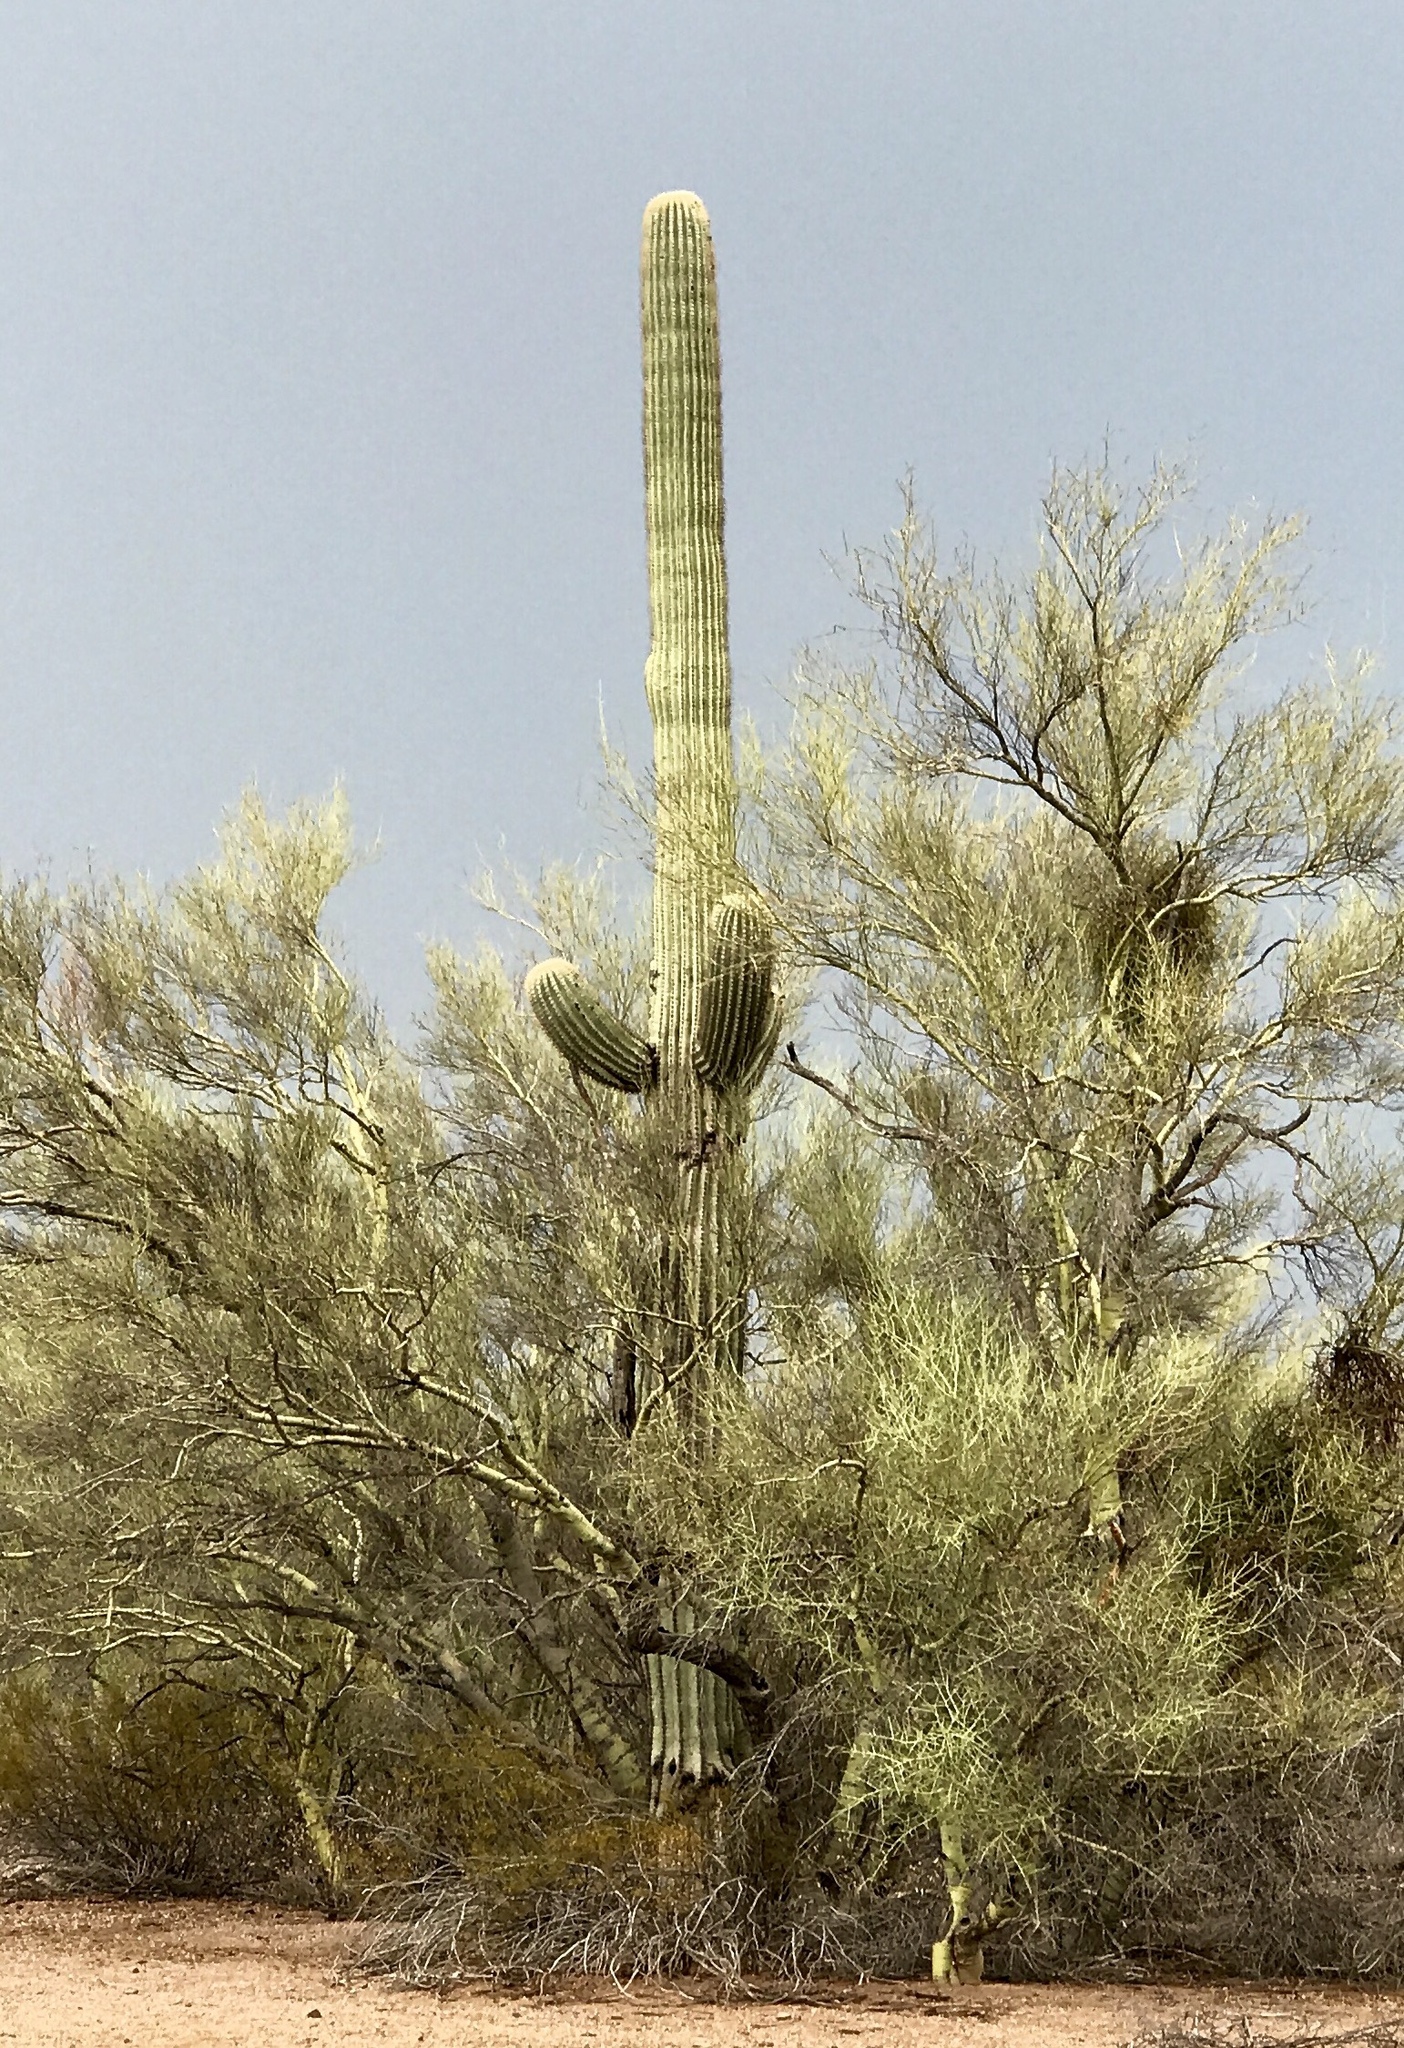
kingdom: Plantae
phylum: Tracheophyta
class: Magnoliopsida
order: Caryophyllales
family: Cactaceae
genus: Carnegiea
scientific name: Carnegiea gigantea
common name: Saguaro
